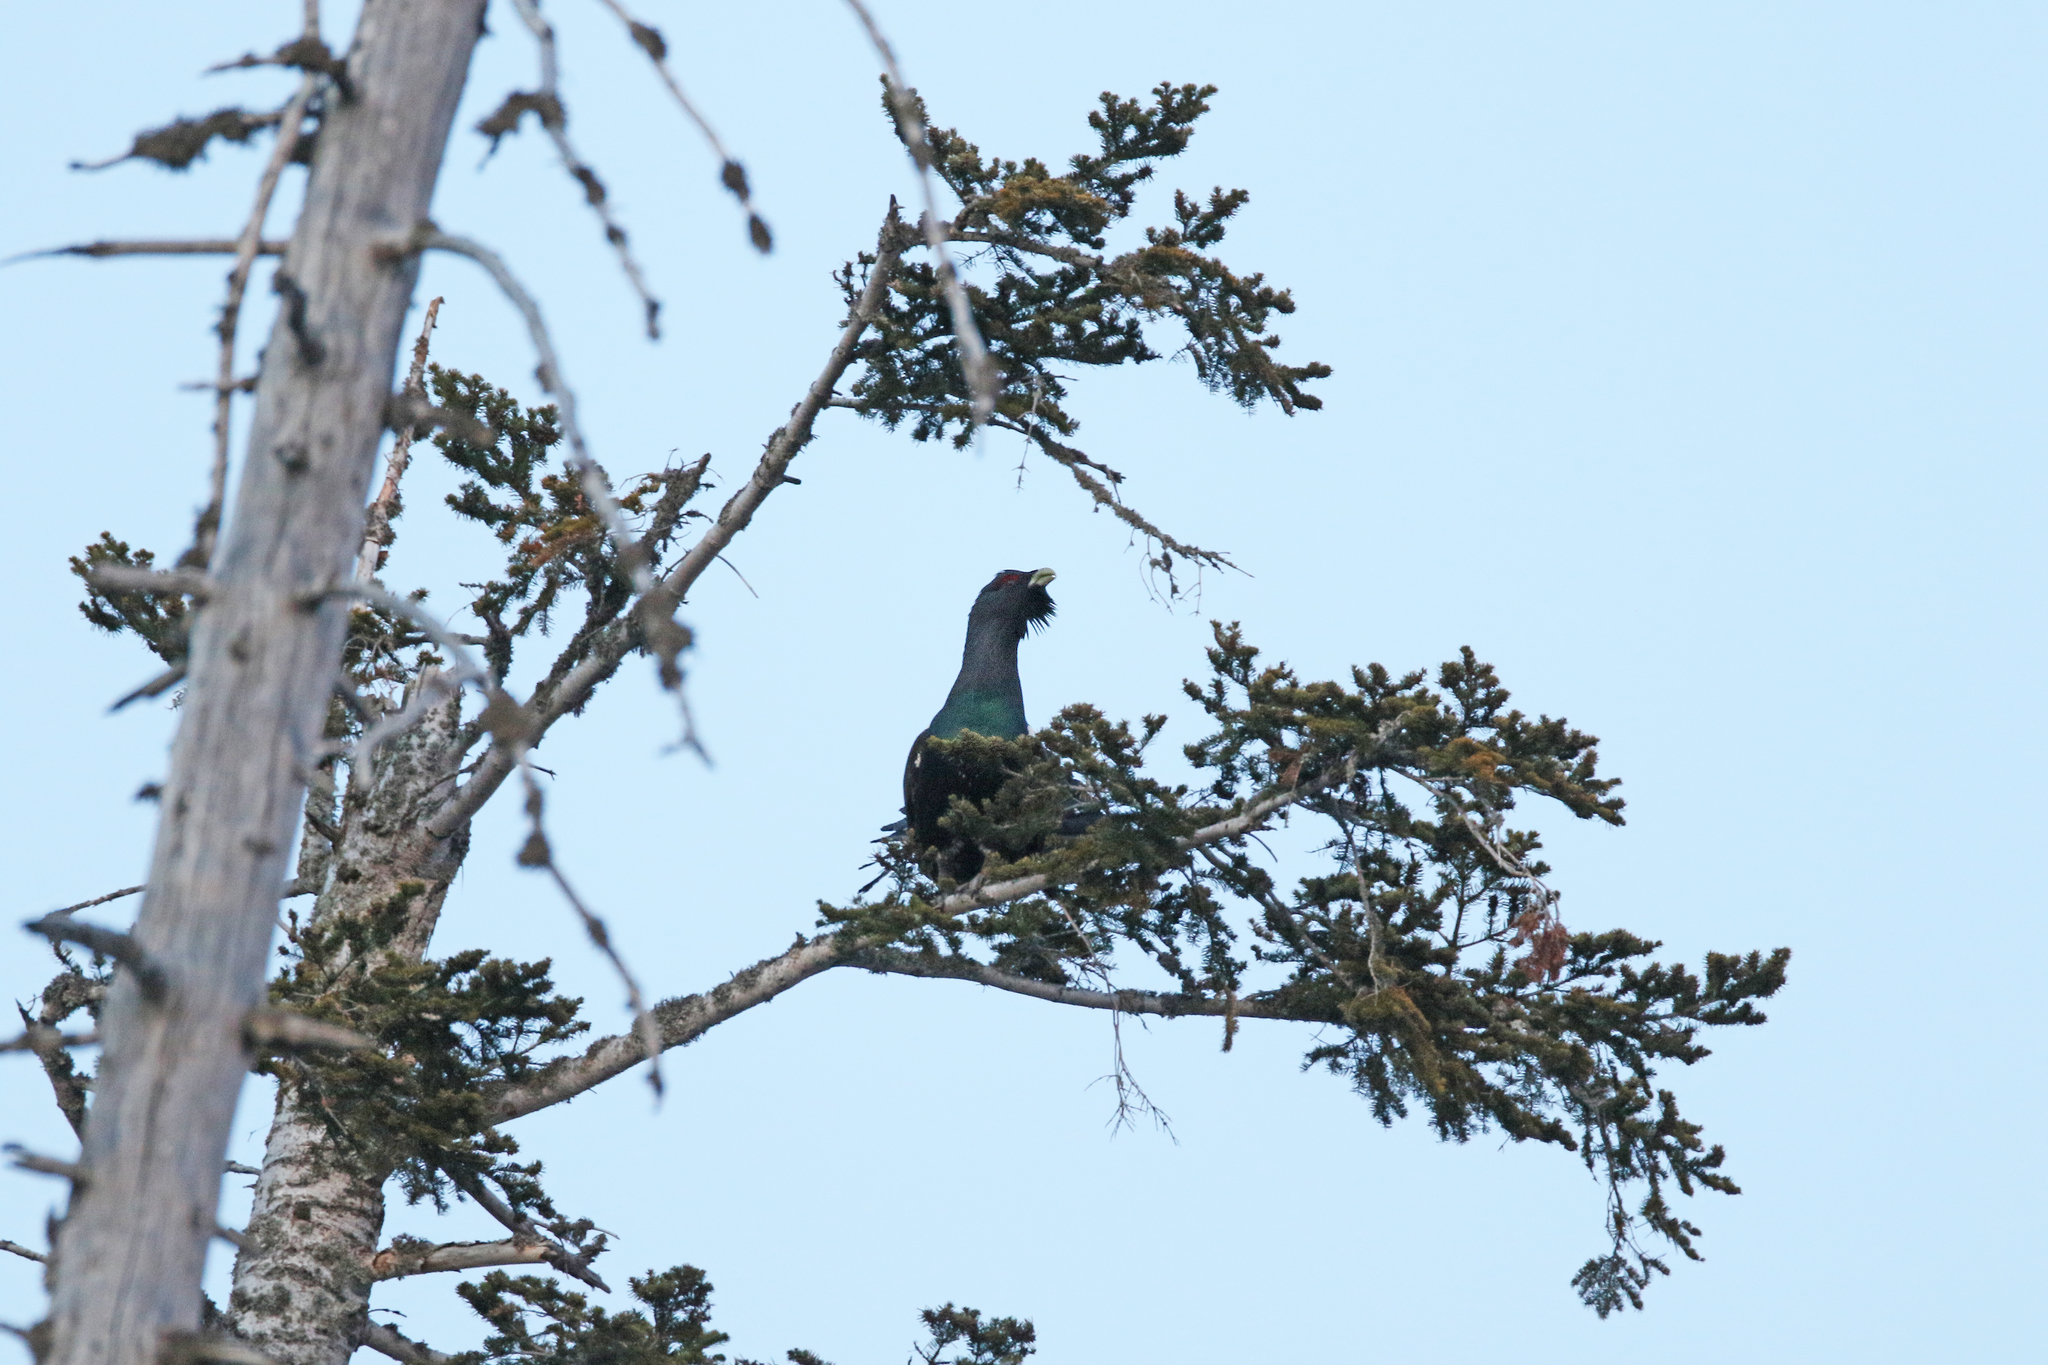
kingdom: Animalia
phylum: Chordata
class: Aves
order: Galliformes
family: Phasianidae
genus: Tetrao
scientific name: Tetrao urogallus
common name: Western capercaillie
